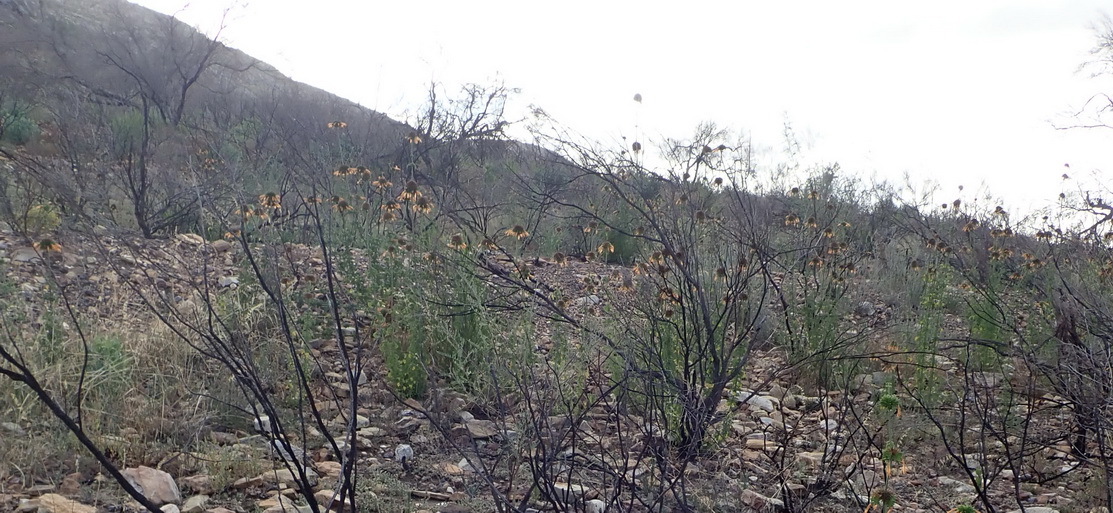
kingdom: Plantae
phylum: Tracheophyta
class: Magnoliopsida
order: Lamiales
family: Lamiaceae
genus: Leonotis
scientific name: Leonotis ocymifolia
